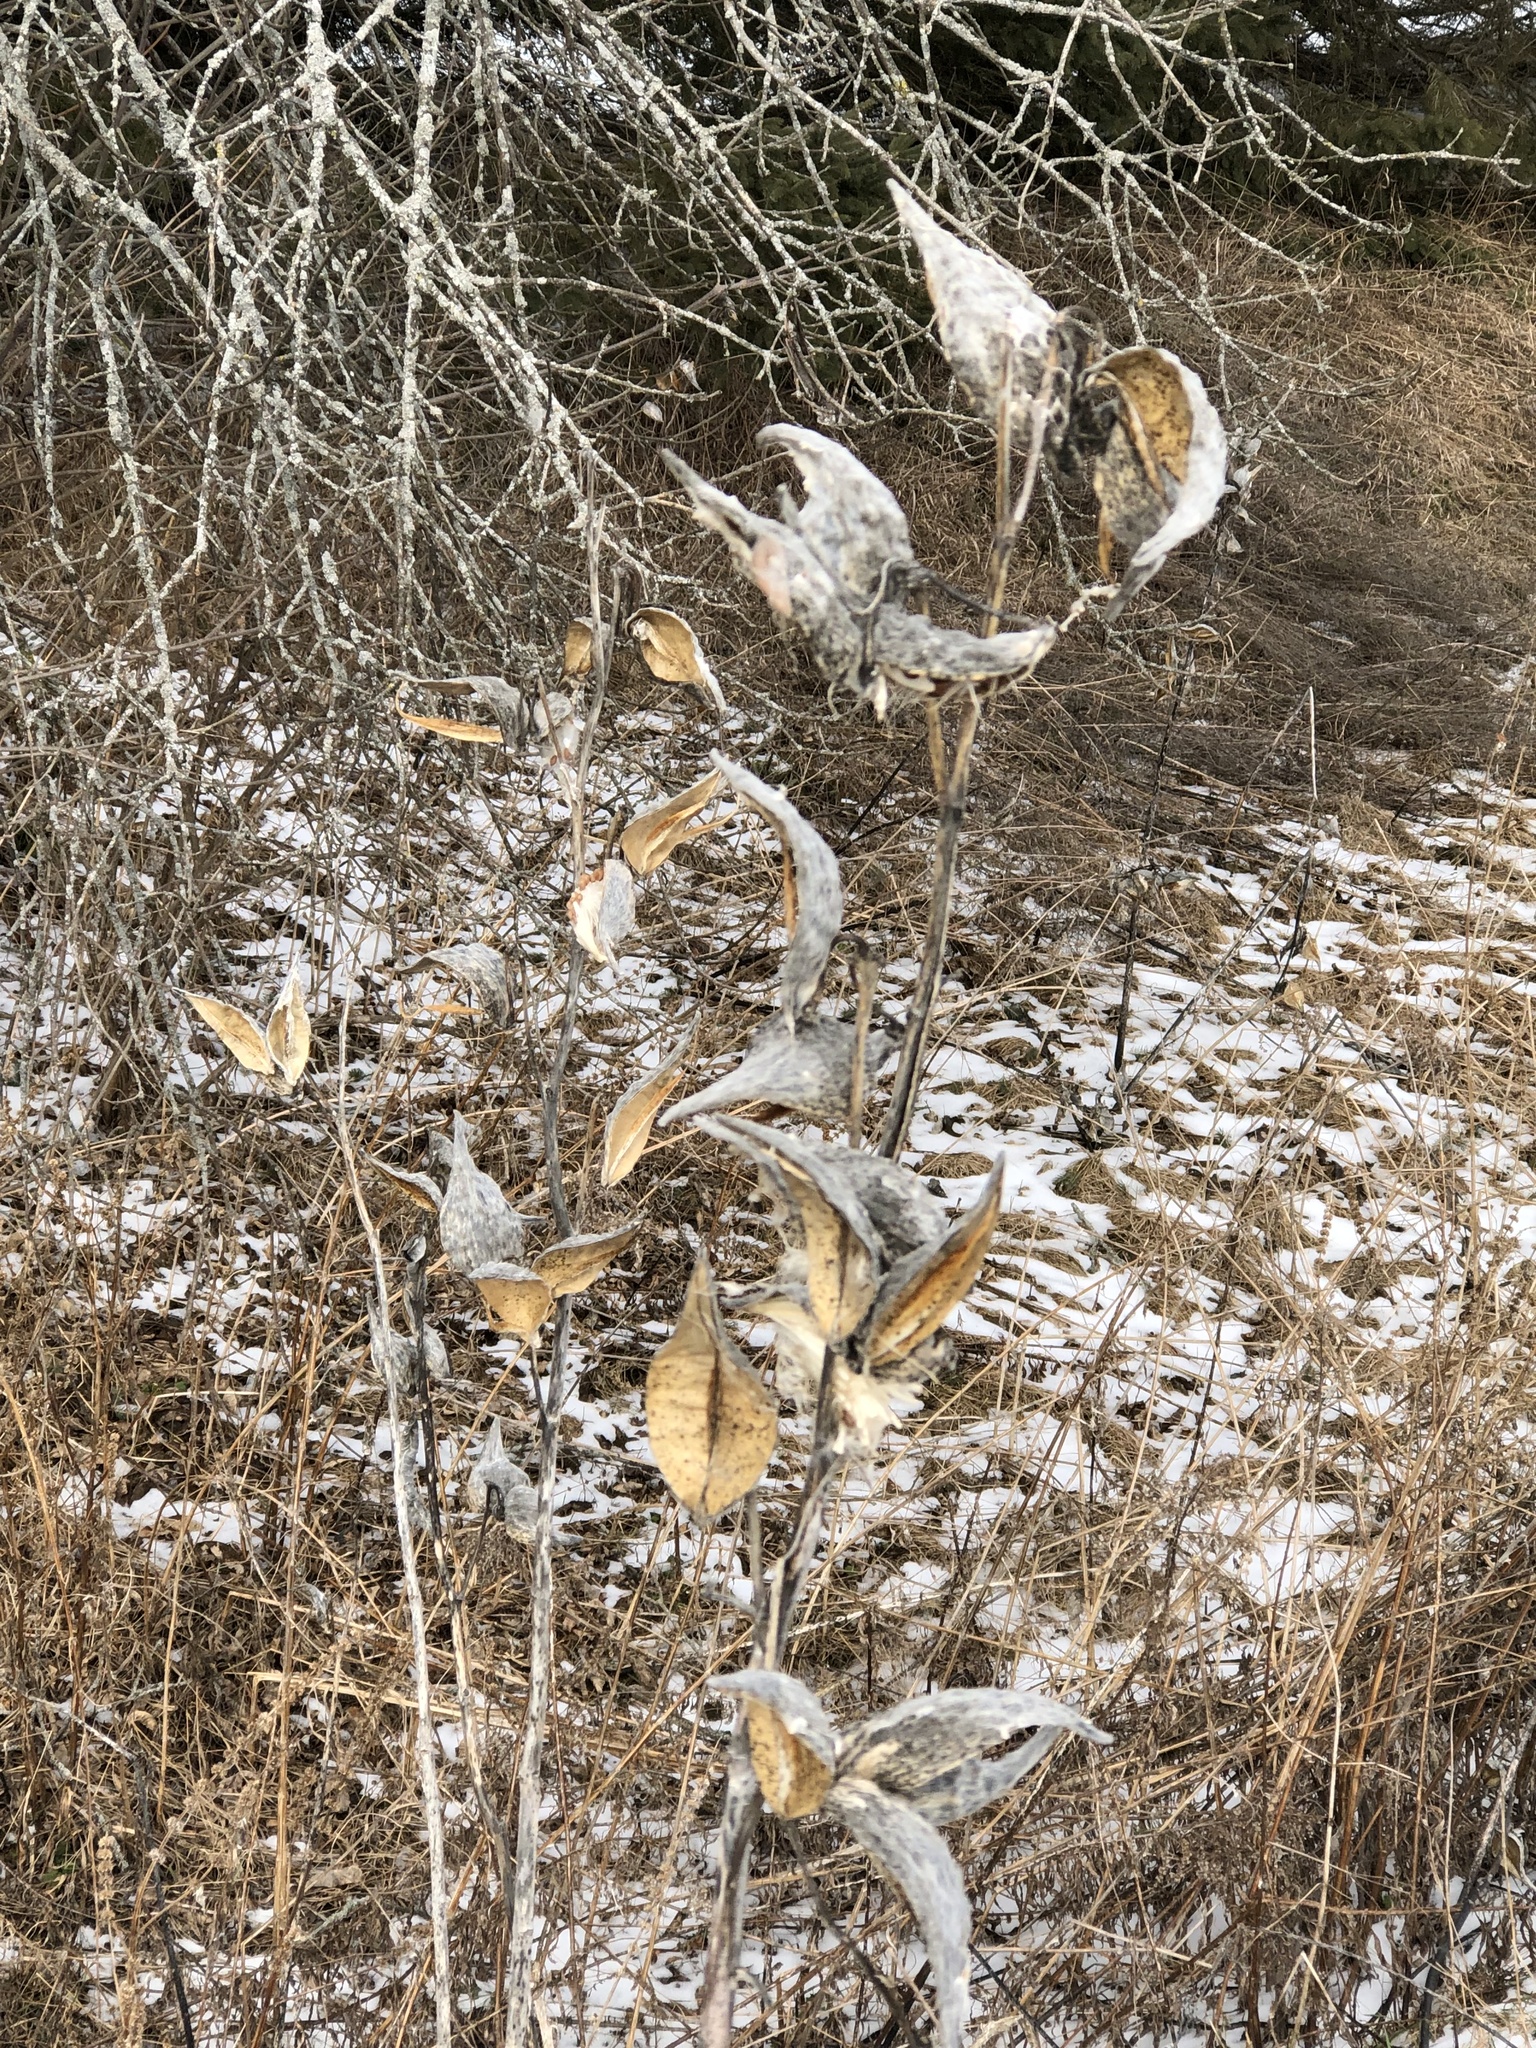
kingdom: Plantae
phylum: Tracheophyta
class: Magnoliopsida
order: Gentianales
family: Apocynaceae
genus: Asclepias
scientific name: Asclepias syriaca
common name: Common milkweed
